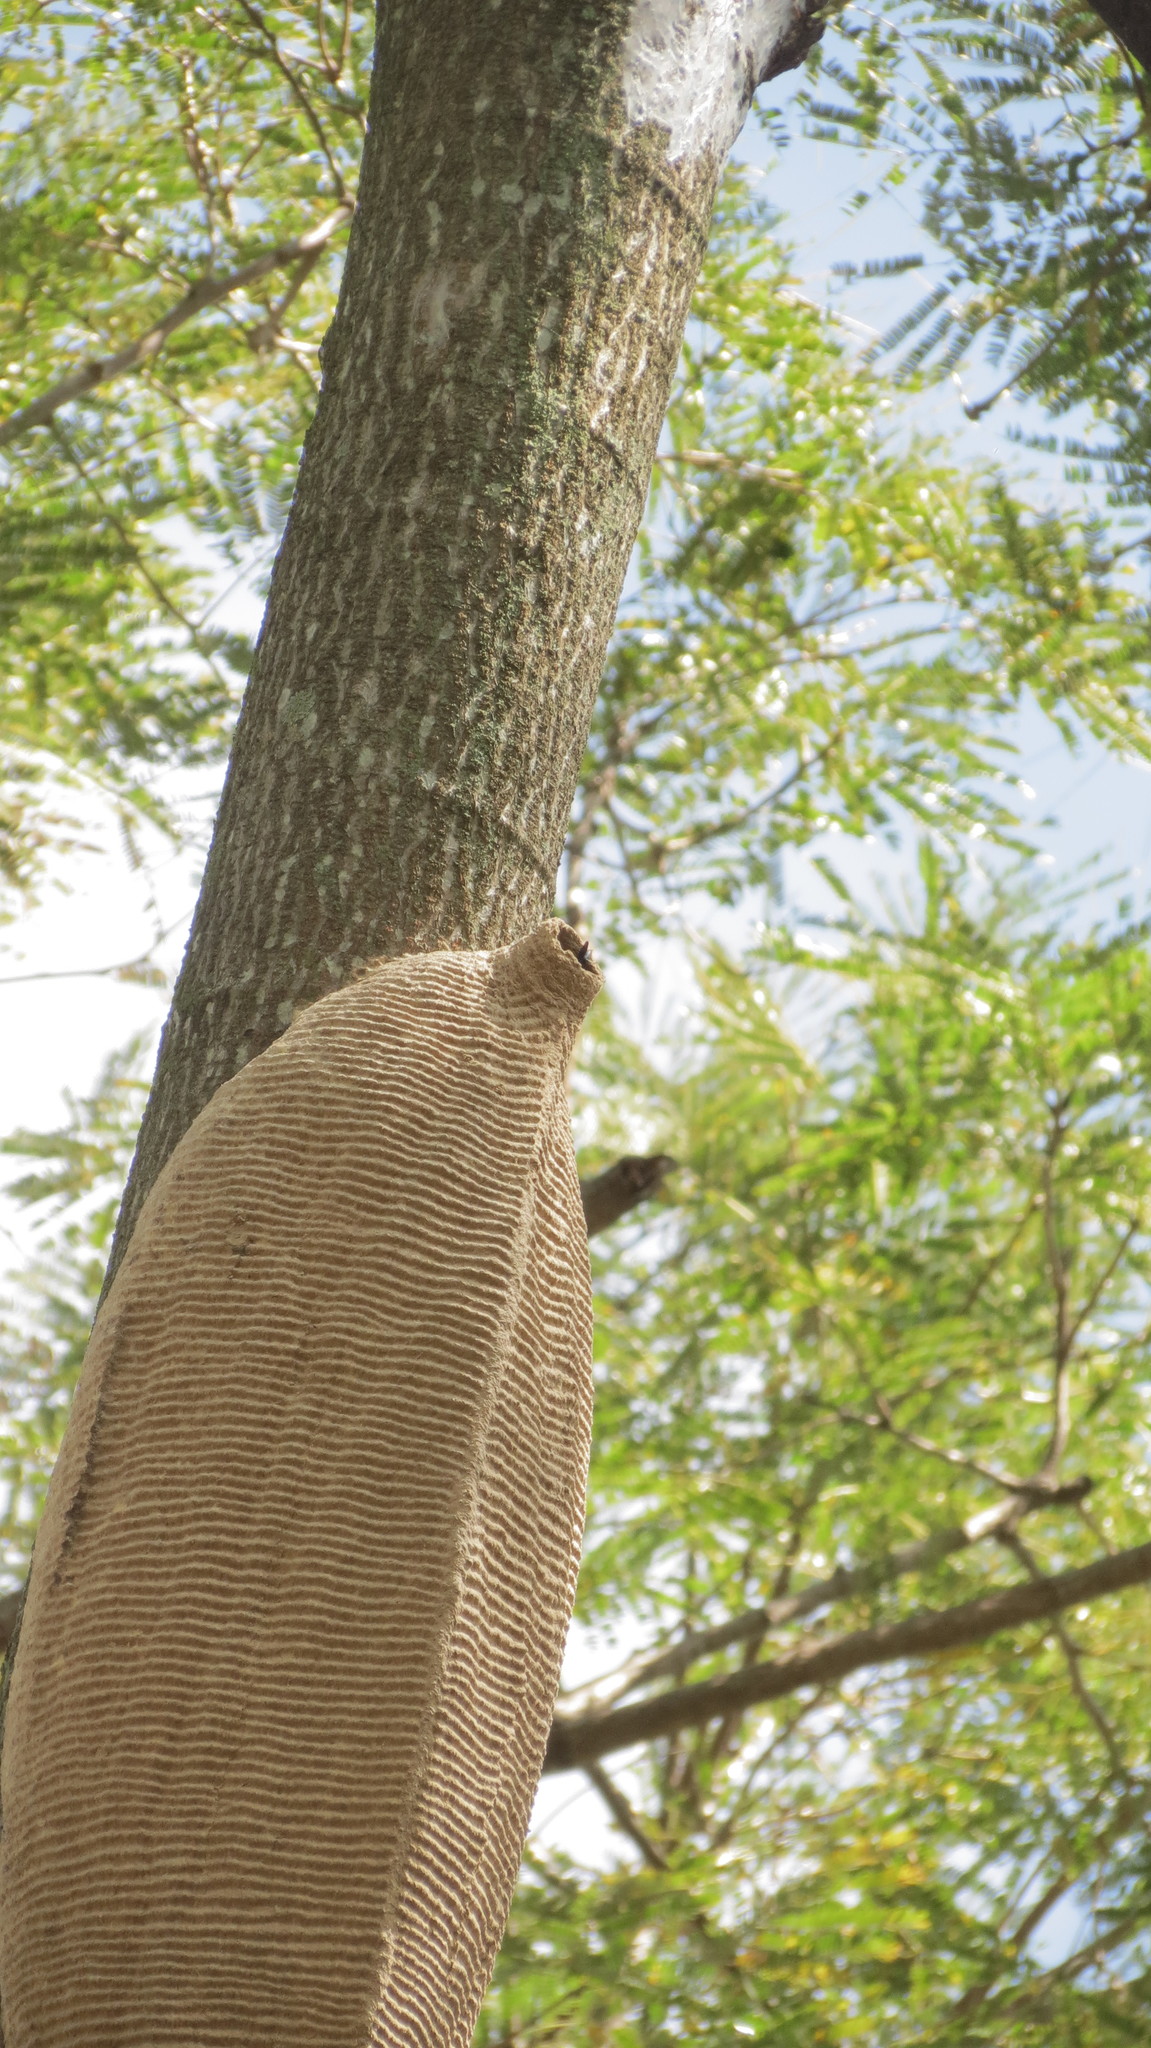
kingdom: Animalia
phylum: Arthropoda
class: Insecta
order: Hymenoptera
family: Vespidae
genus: Synoeca
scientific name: Synoeca septentrionalis
